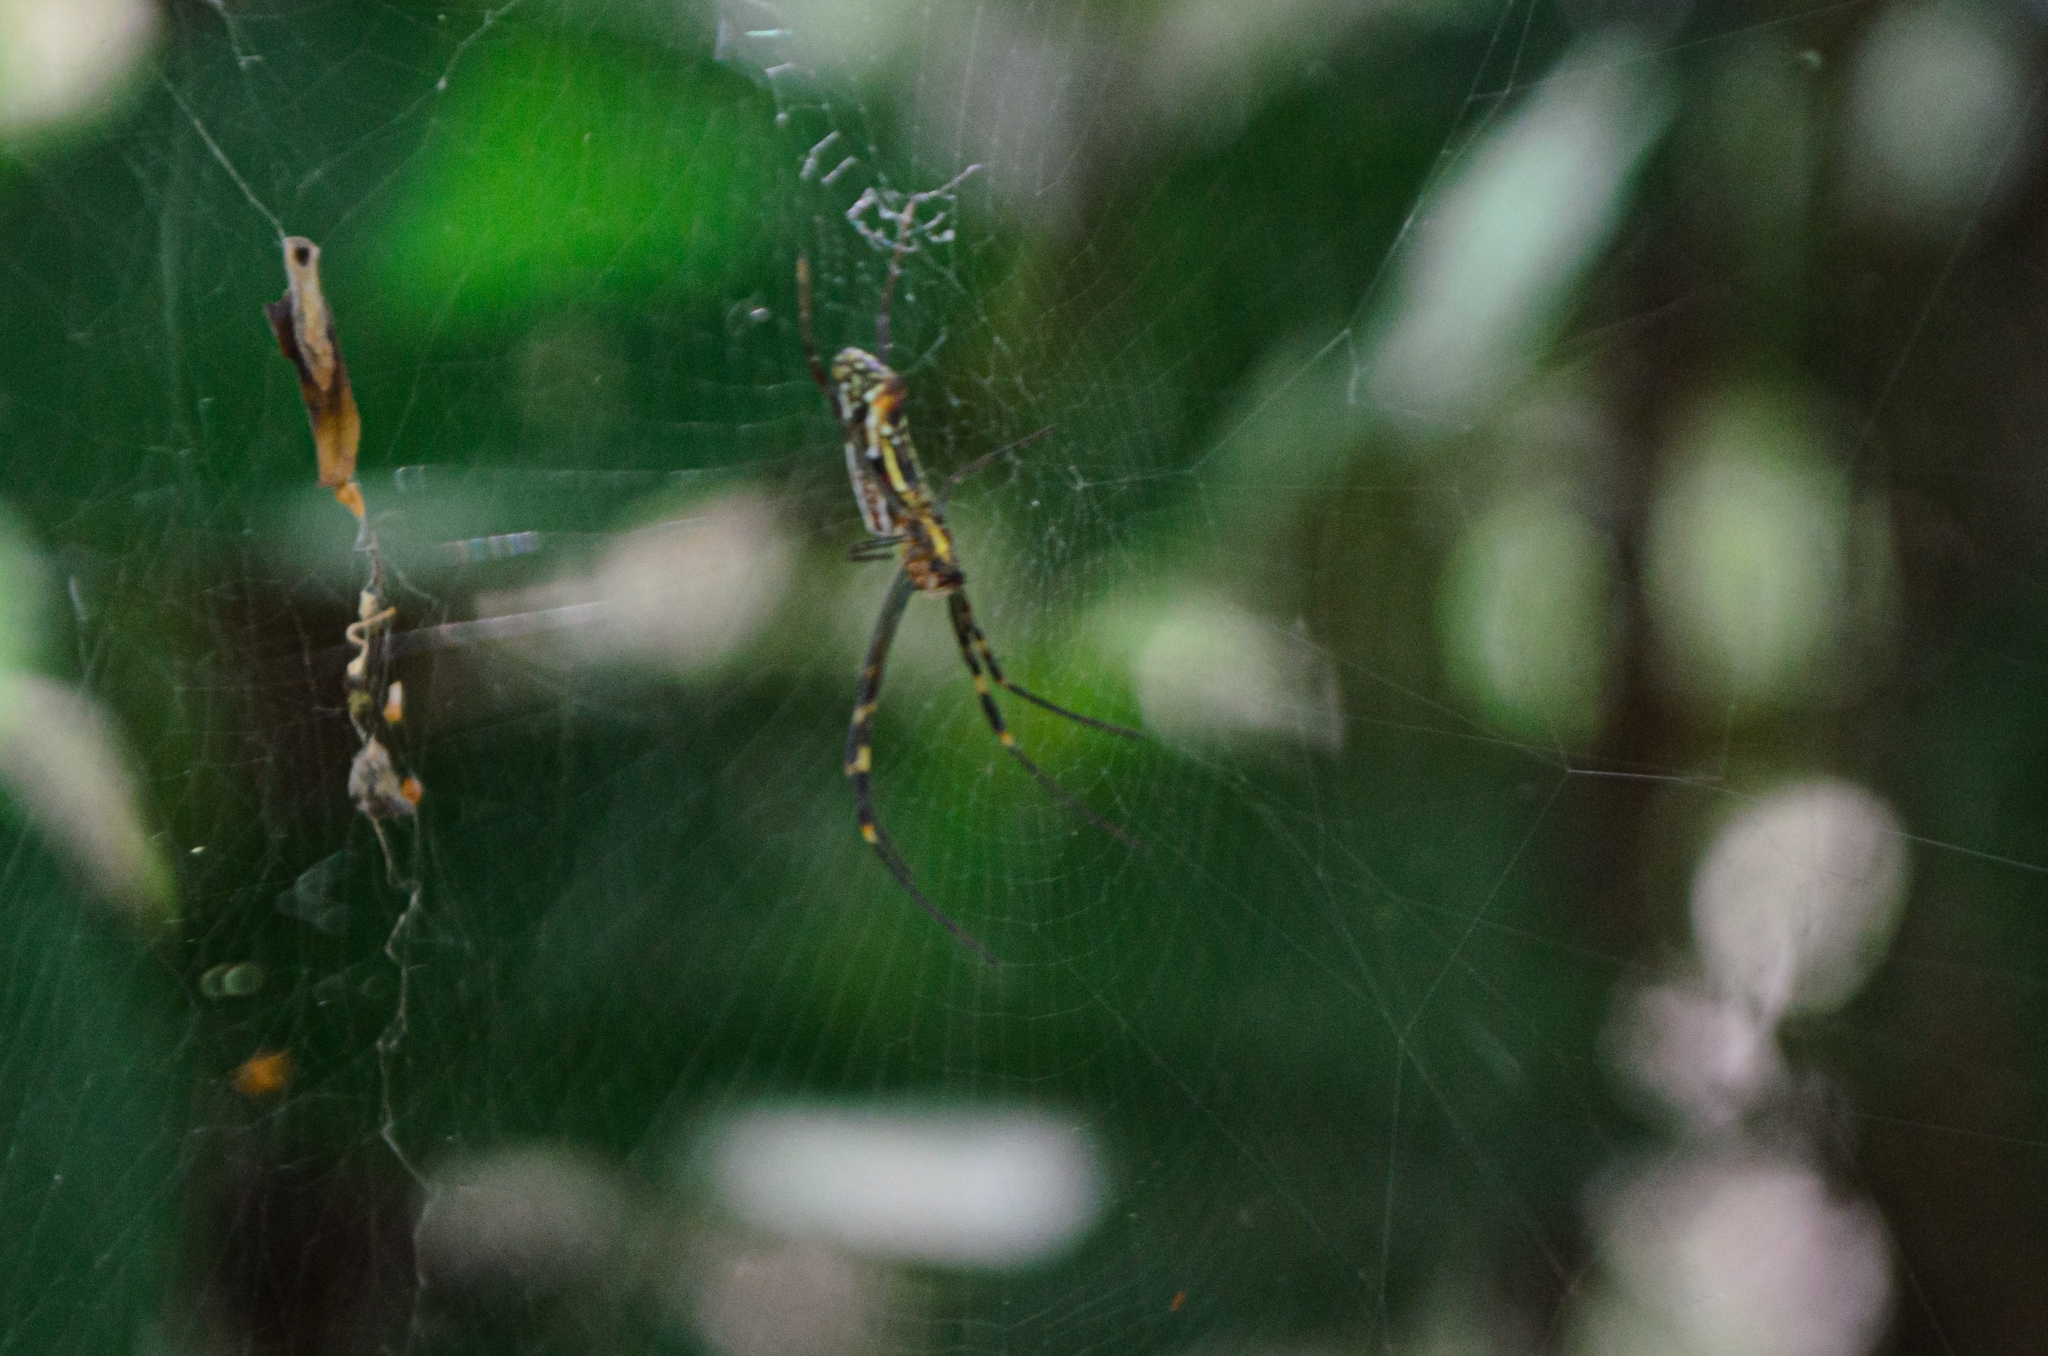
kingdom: Animalia
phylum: Arthropoda
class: Arachnida
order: Araneae
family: Araneidae
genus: Trichonephila
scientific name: Trichonephila clavipes
